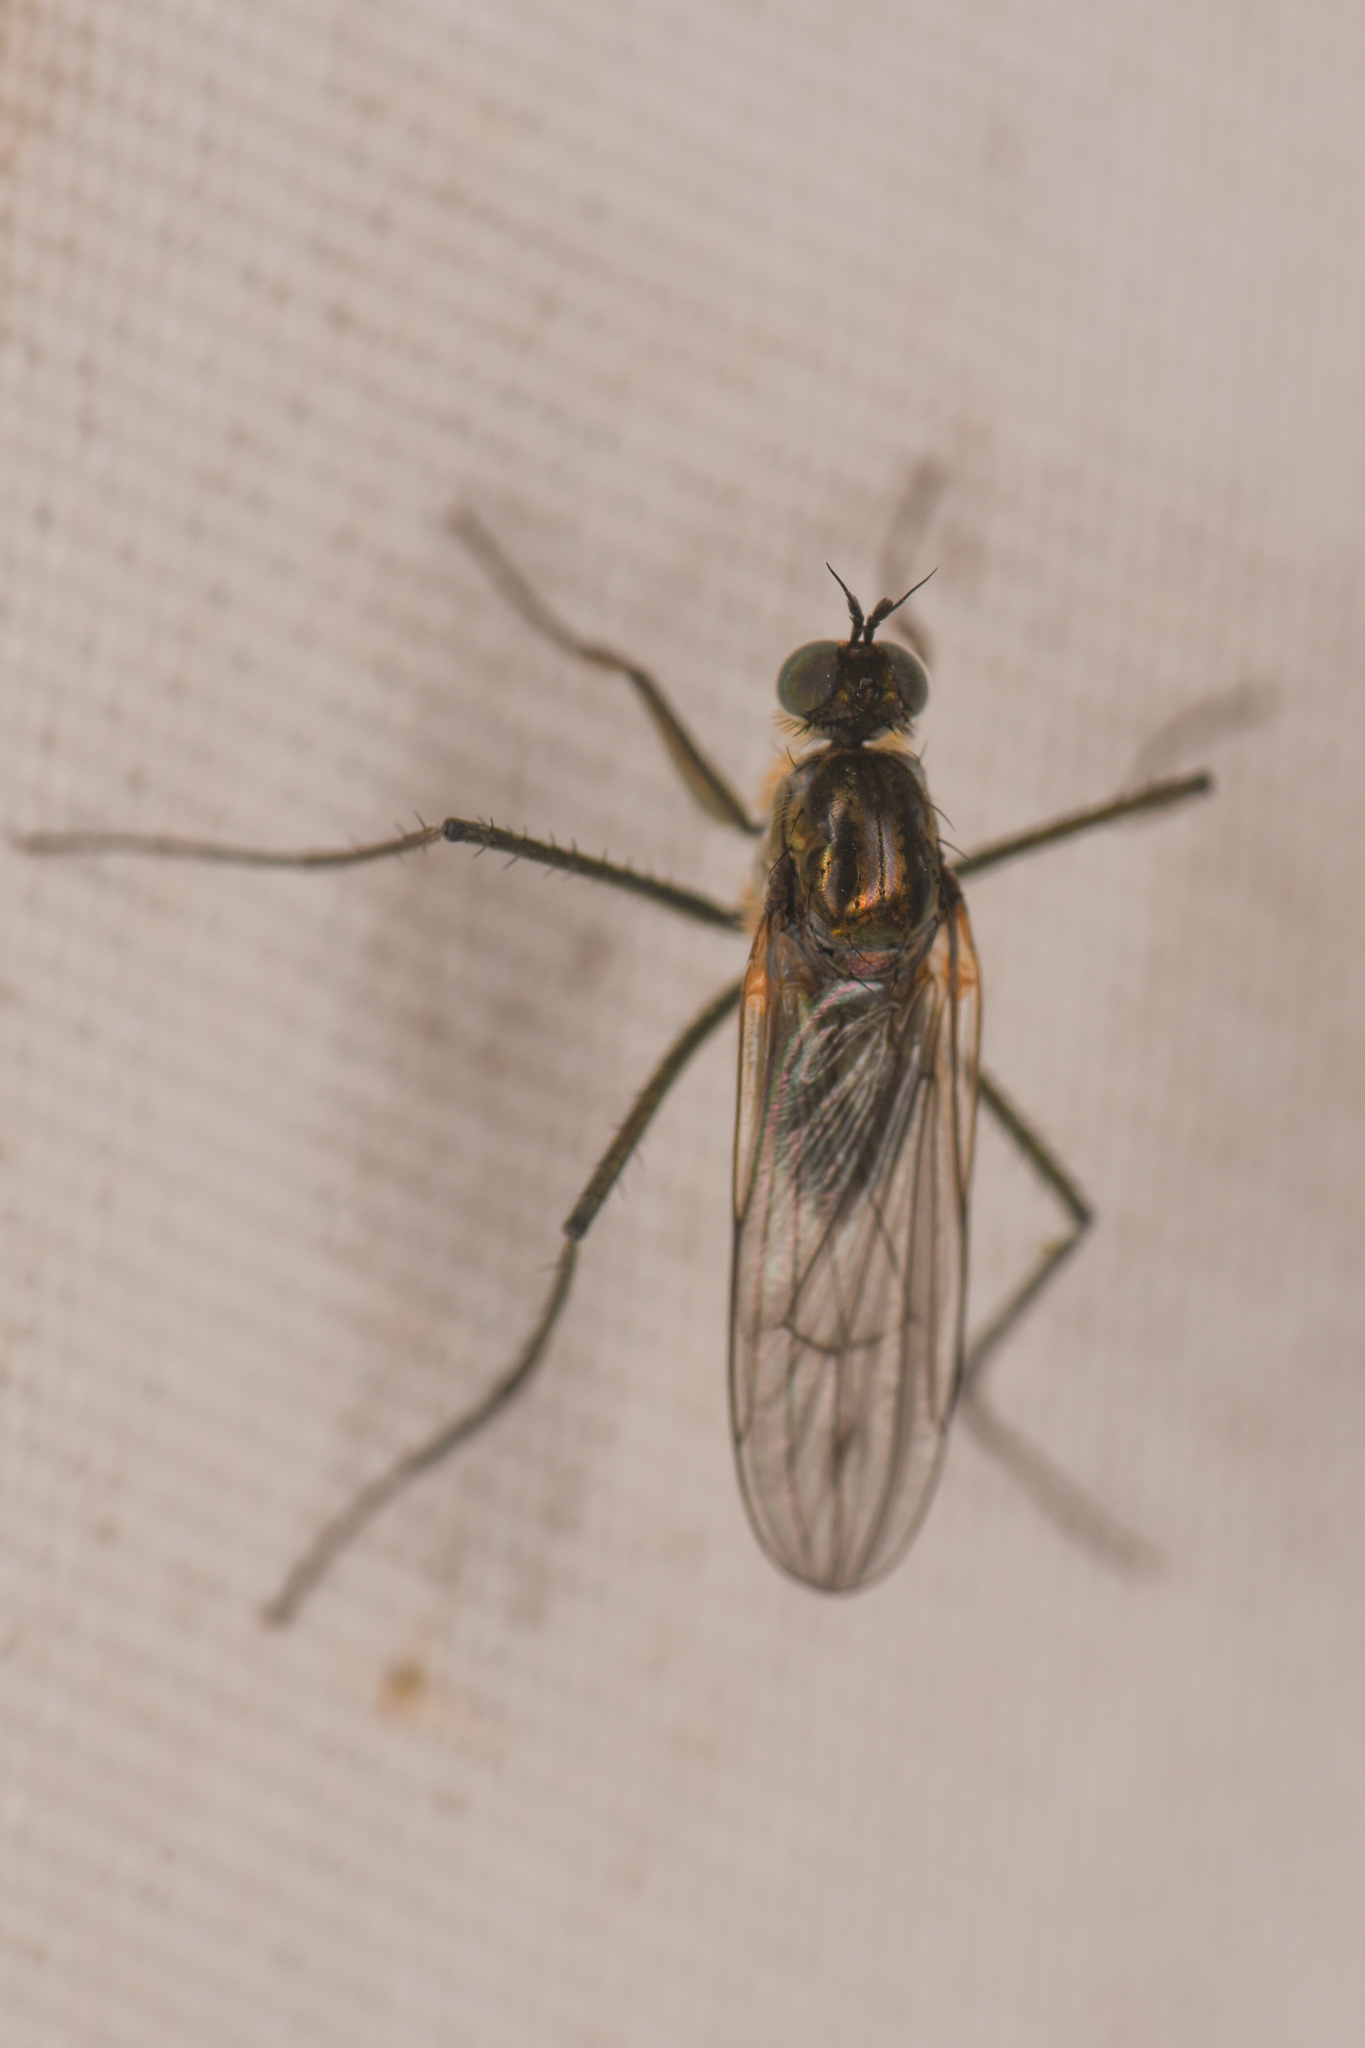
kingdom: Animalia
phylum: Arthropoda
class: Insecta
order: Diptera
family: Dolichopodidae
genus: Hydatostega
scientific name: Hydatostega viridiflos
